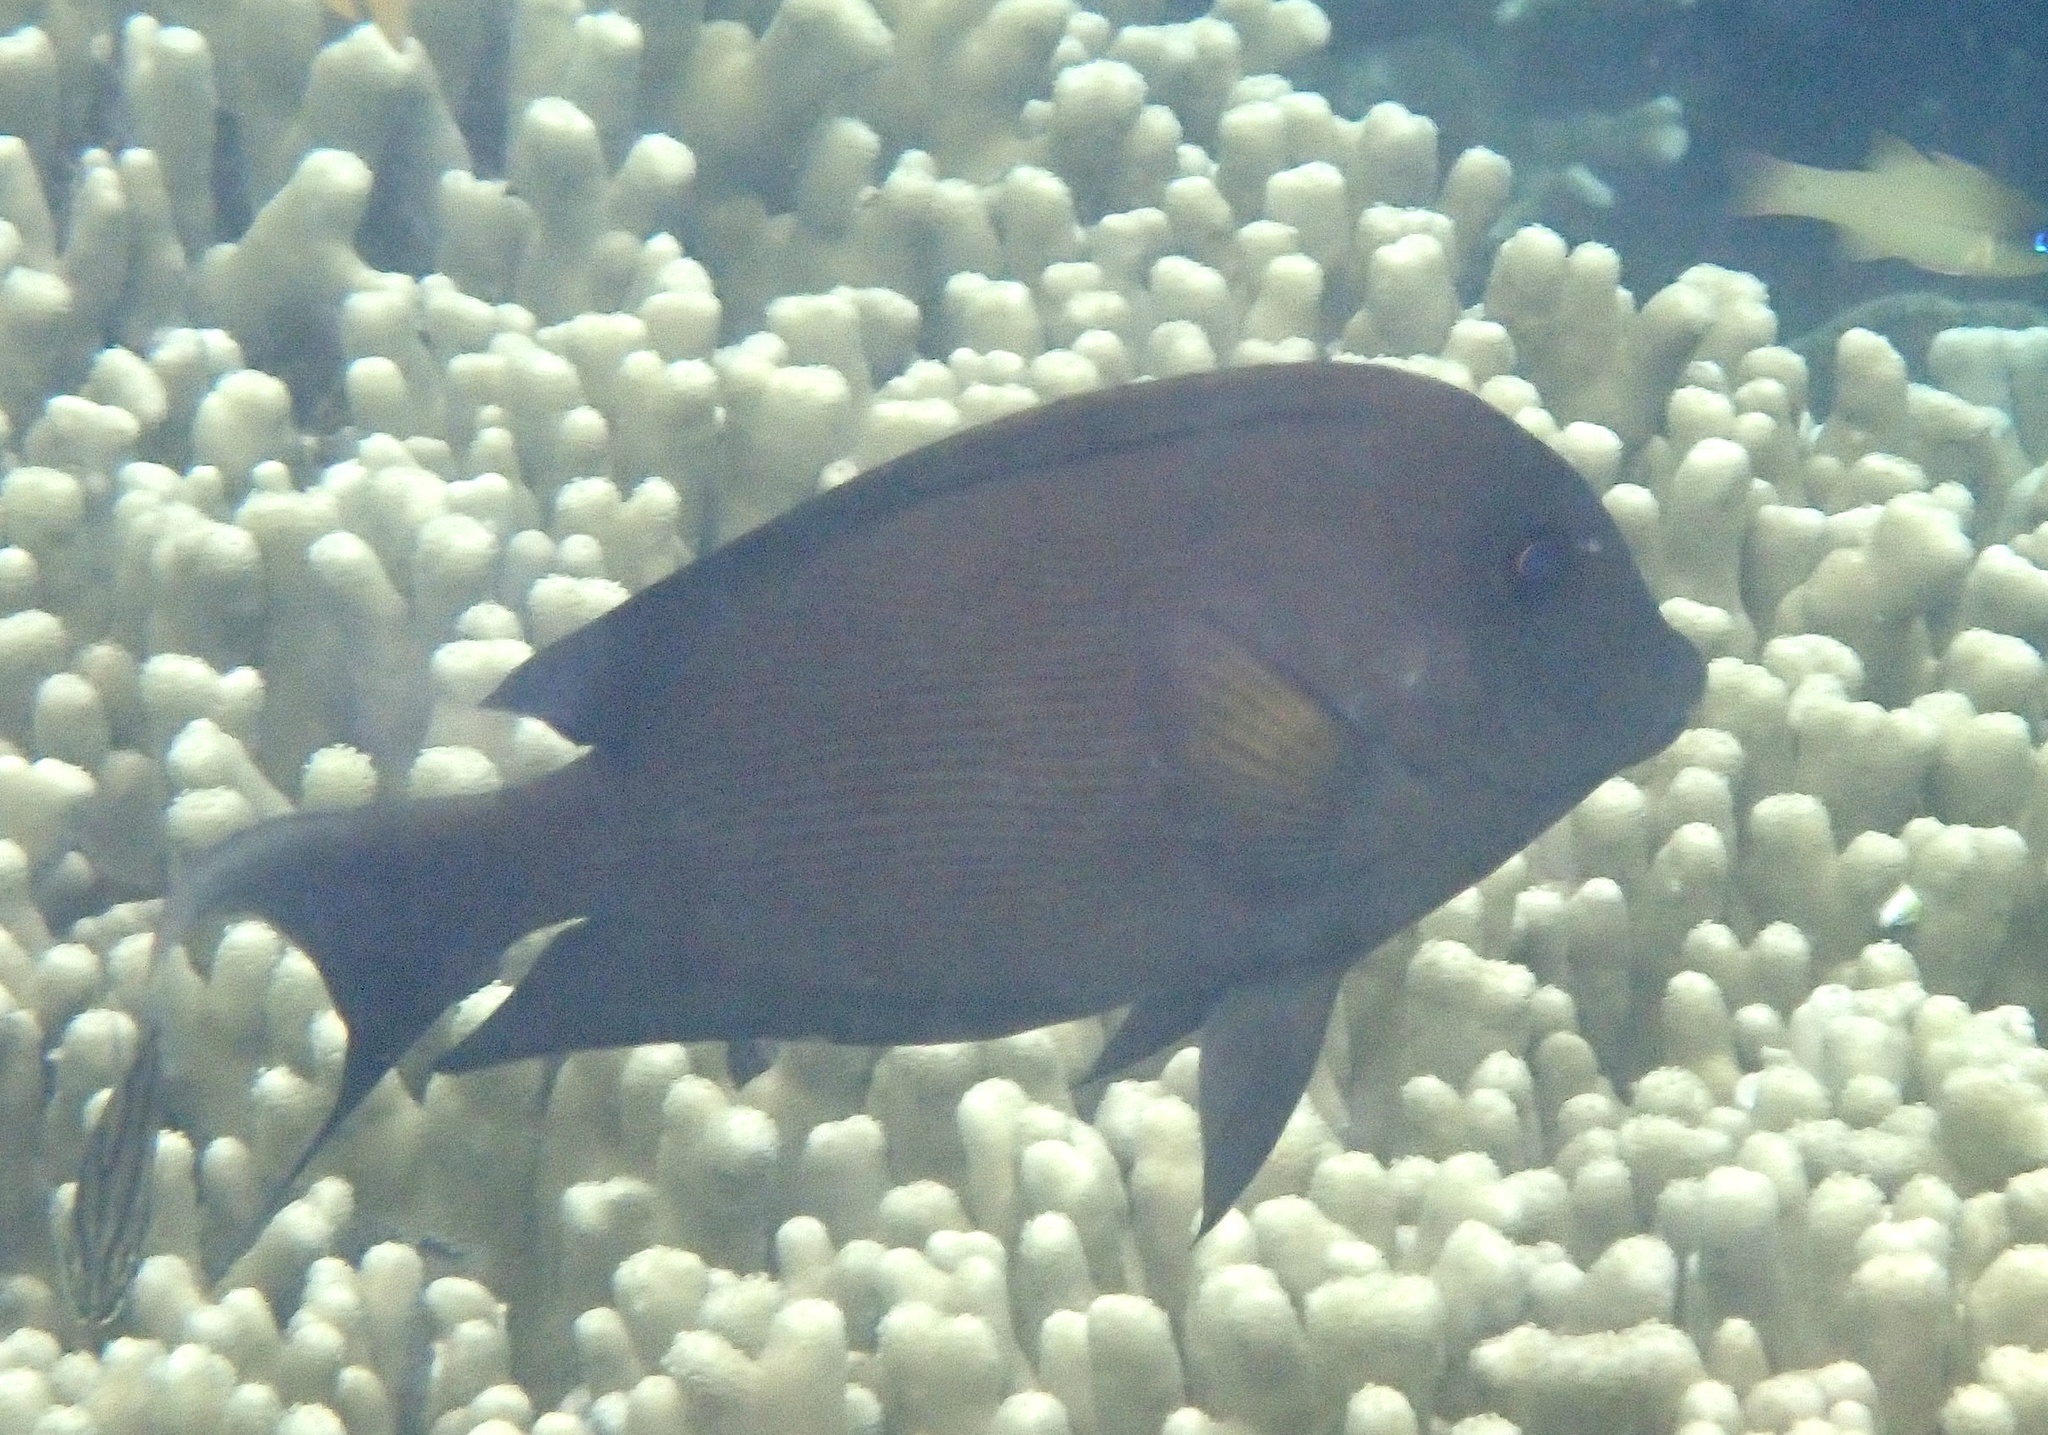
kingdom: Animalia
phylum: Chordata
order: Perciformes
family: Acanthuridae
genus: Ctenochaetus
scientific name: Ctenochaetus striatus
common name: Bristle-toothed surgeonfish
